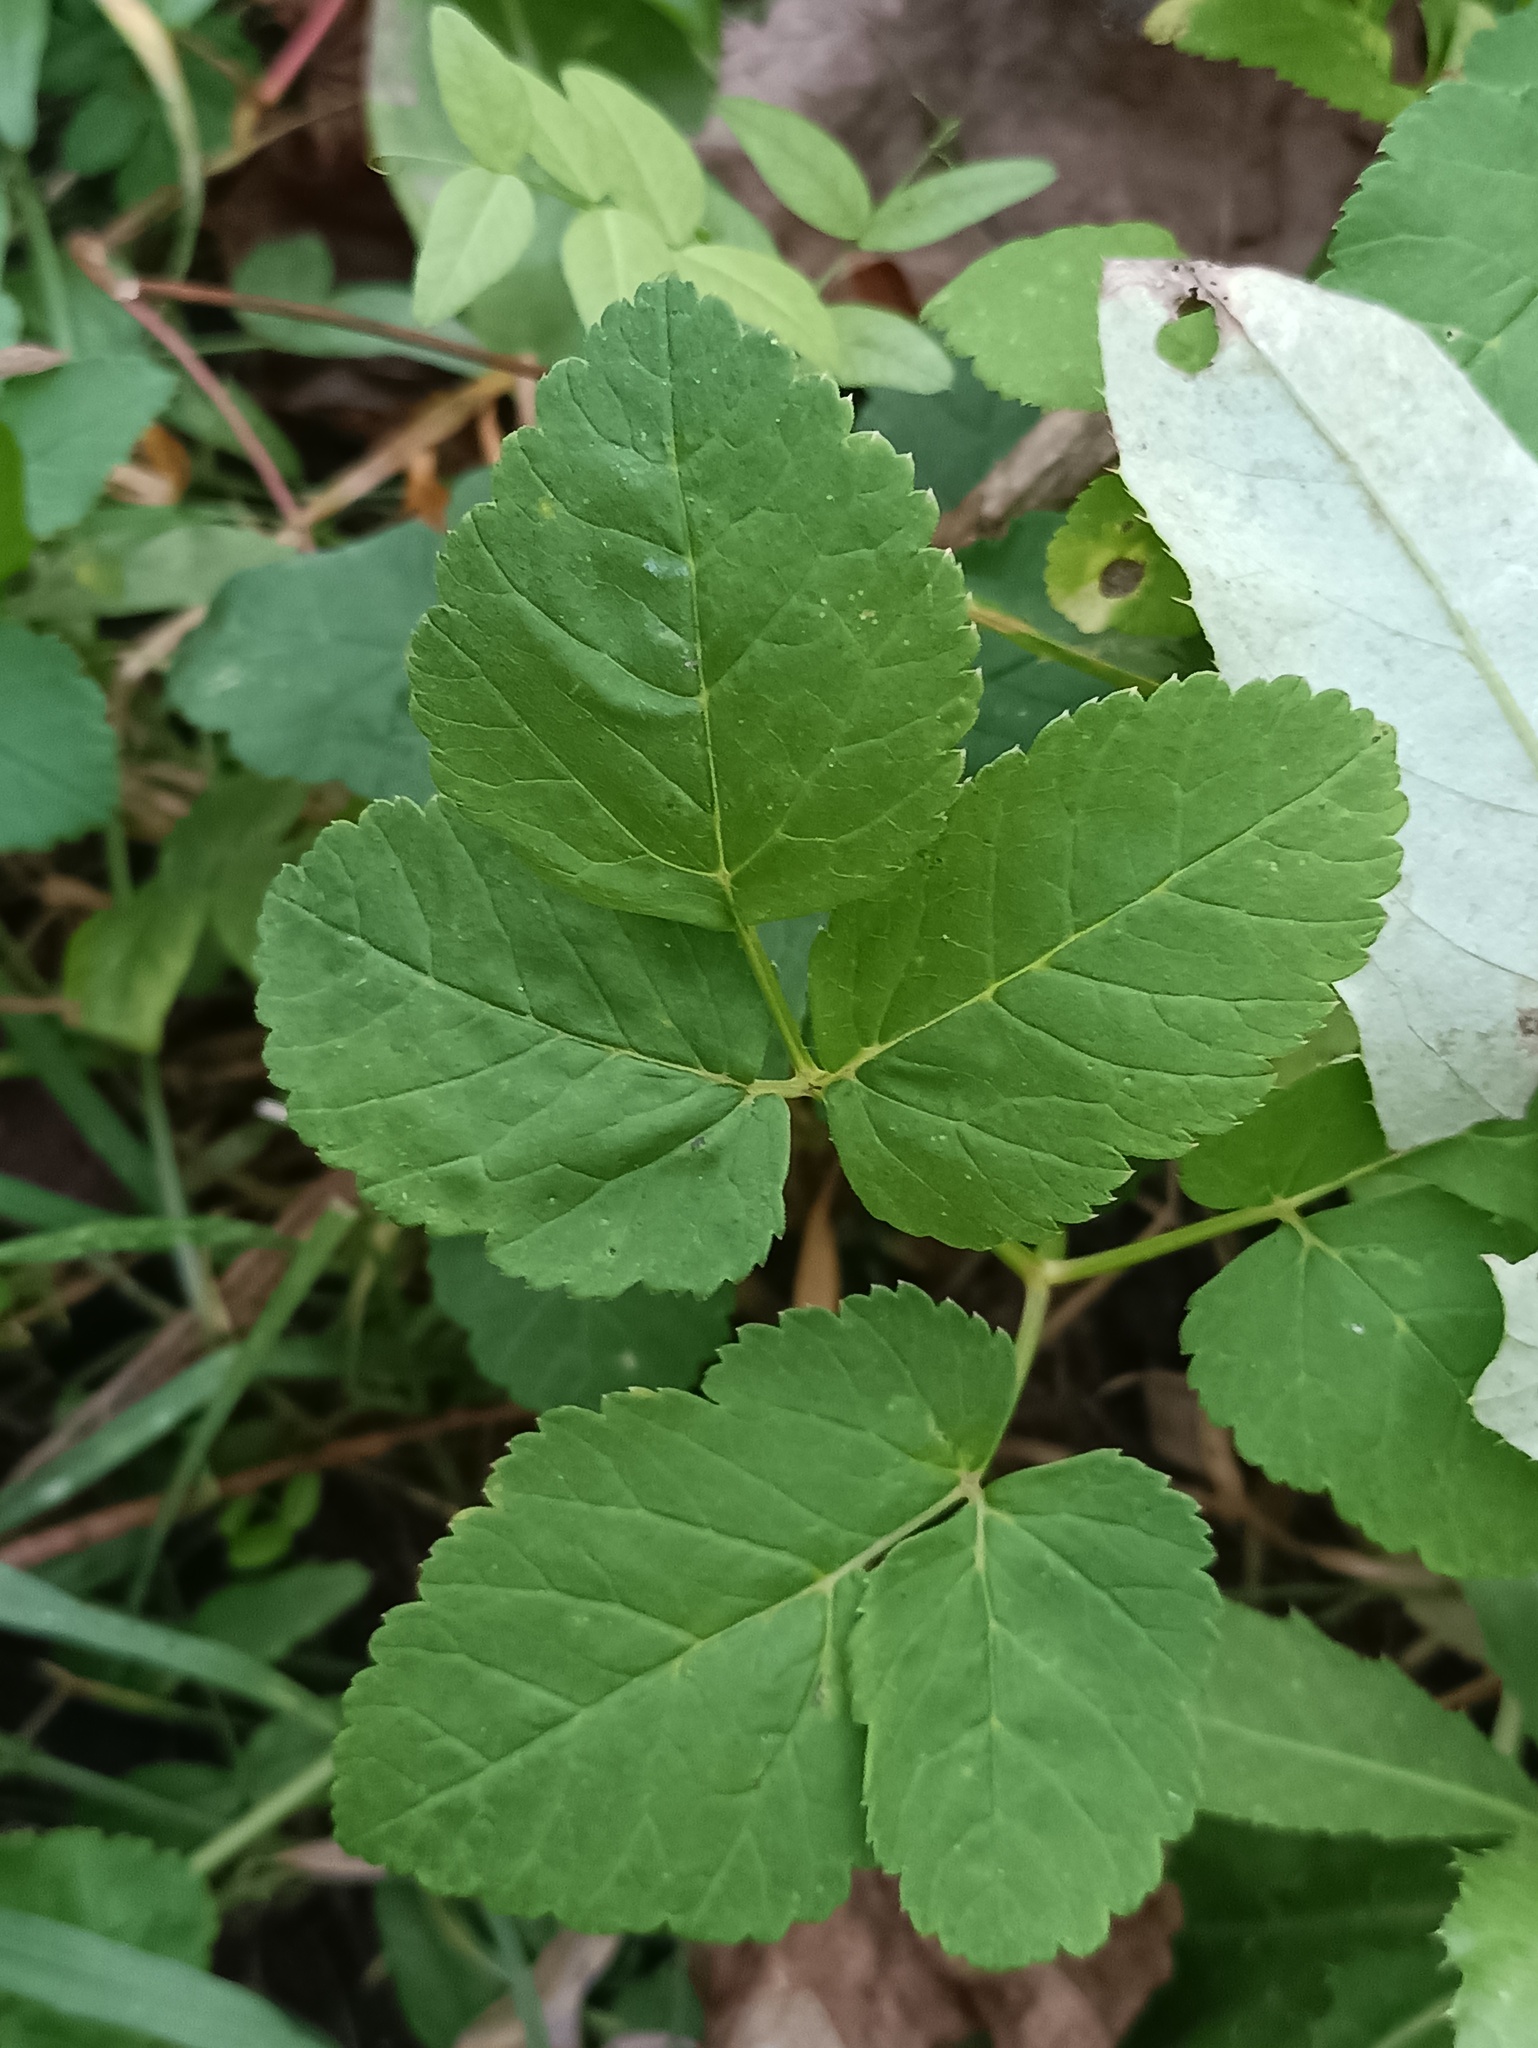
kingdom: Plantae
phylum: Tracheophyta
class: Magnoliopsida
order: Apiales
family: Apiaceae
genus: Aegopodium
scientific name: Aegopodium podagraria
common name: Ground-elder
